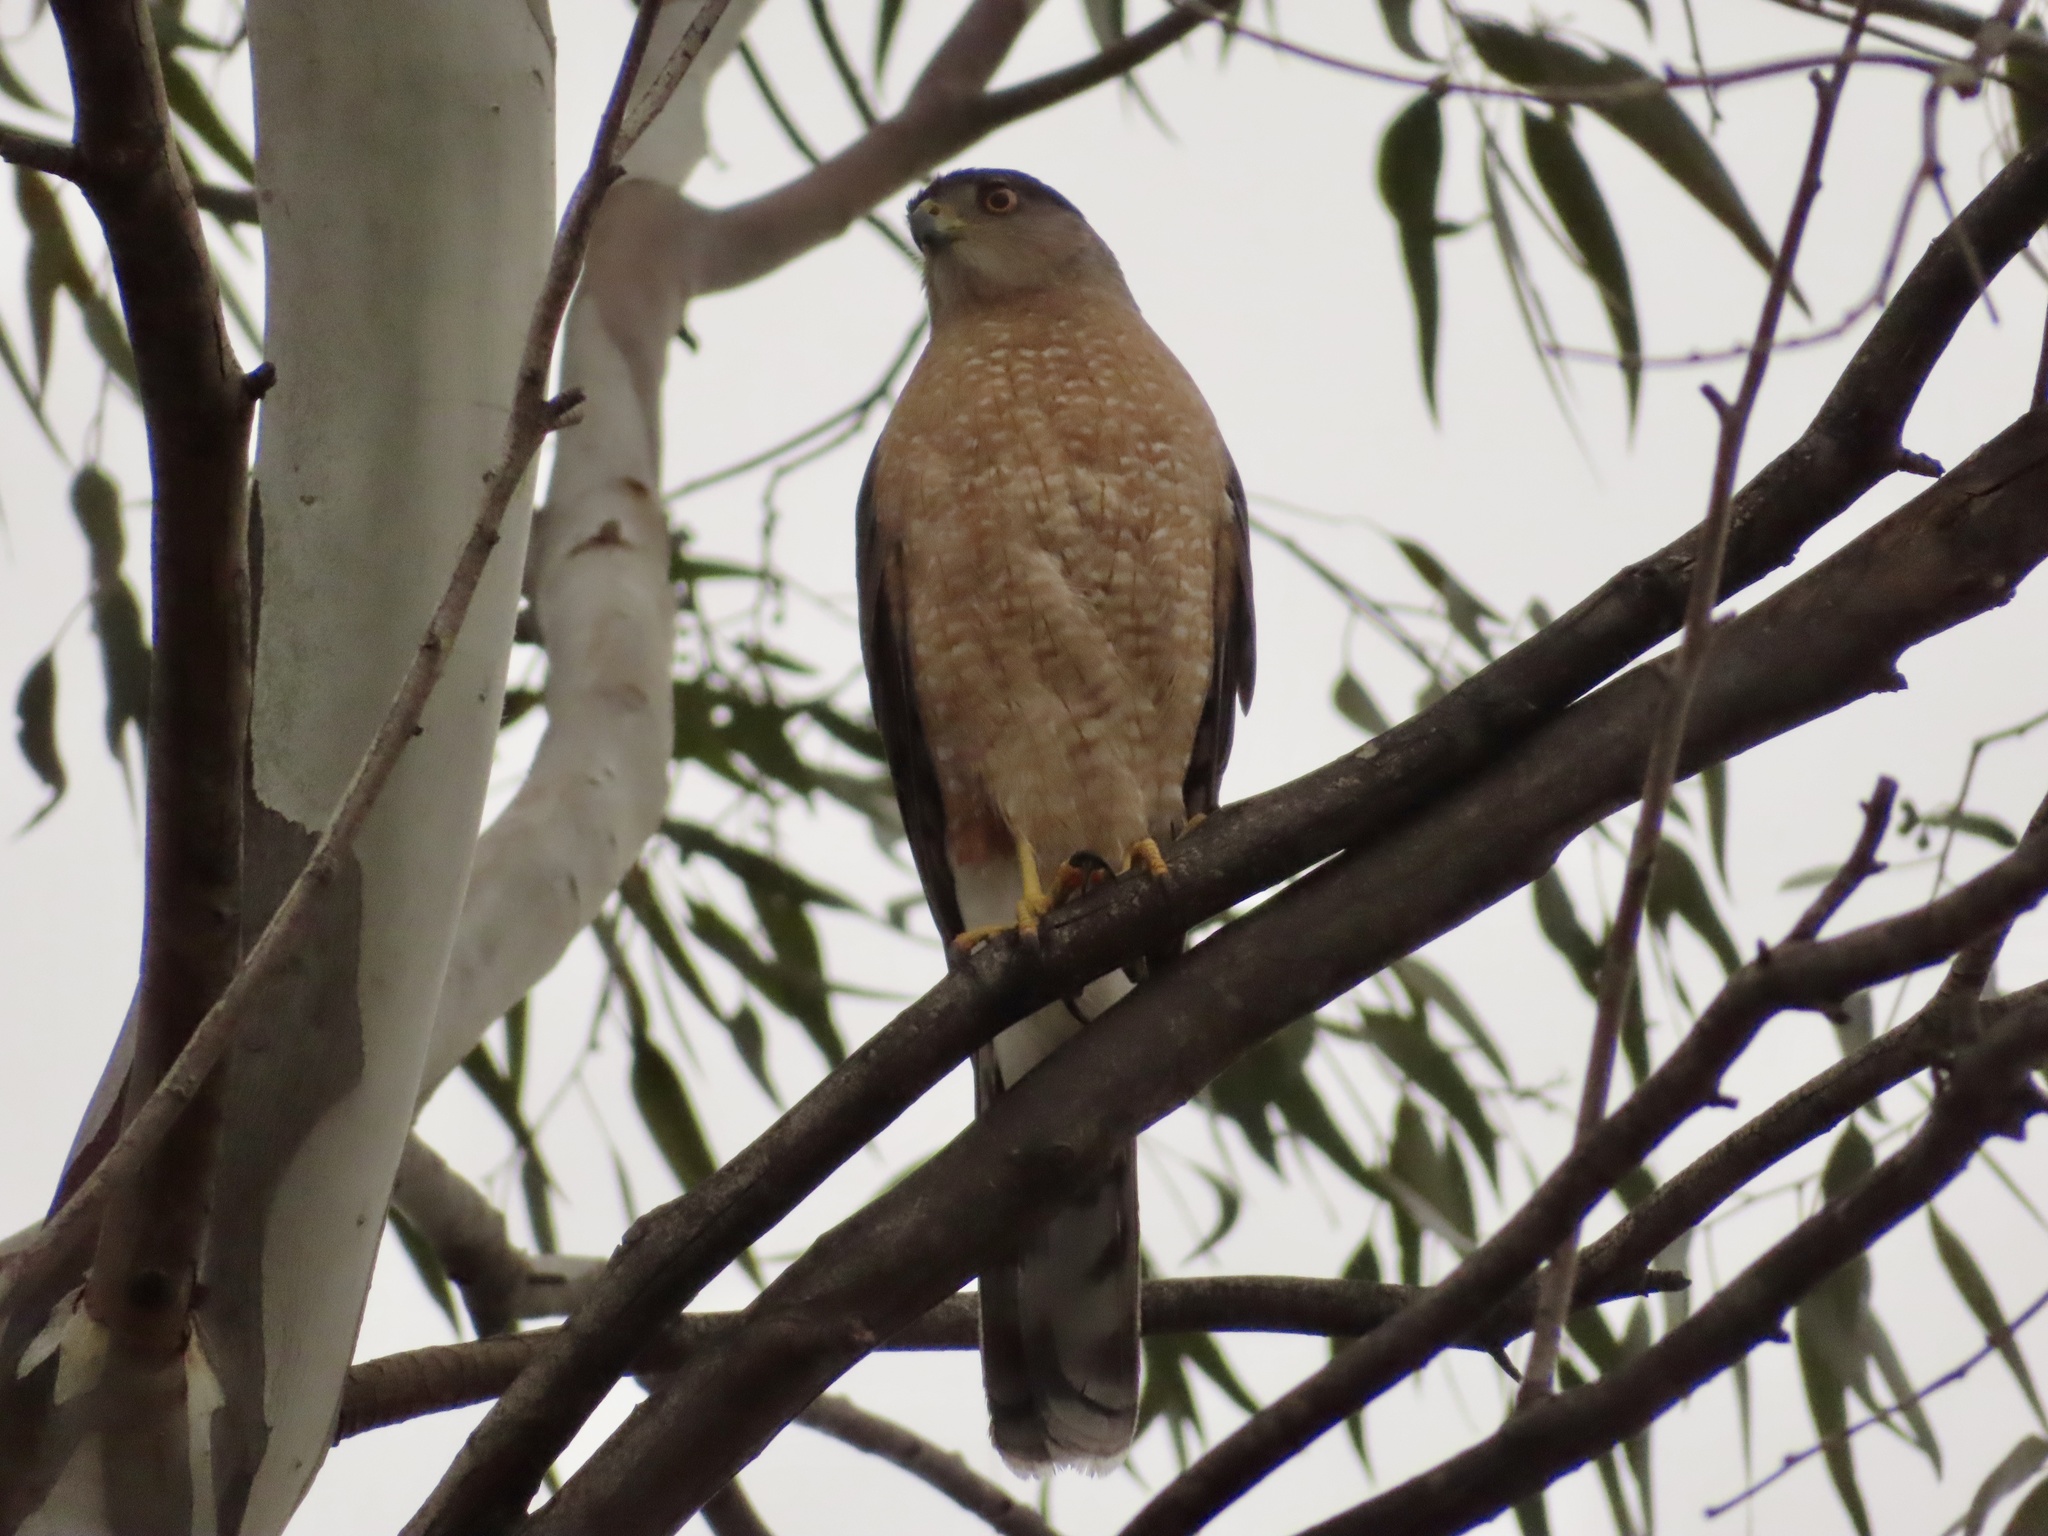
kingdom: Animalia
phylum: Chordata
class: Aves
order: Accipitriformes
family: Accipitridae
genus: Accipiter
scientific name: Accipiter cooperii
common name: Cooper's hawk
